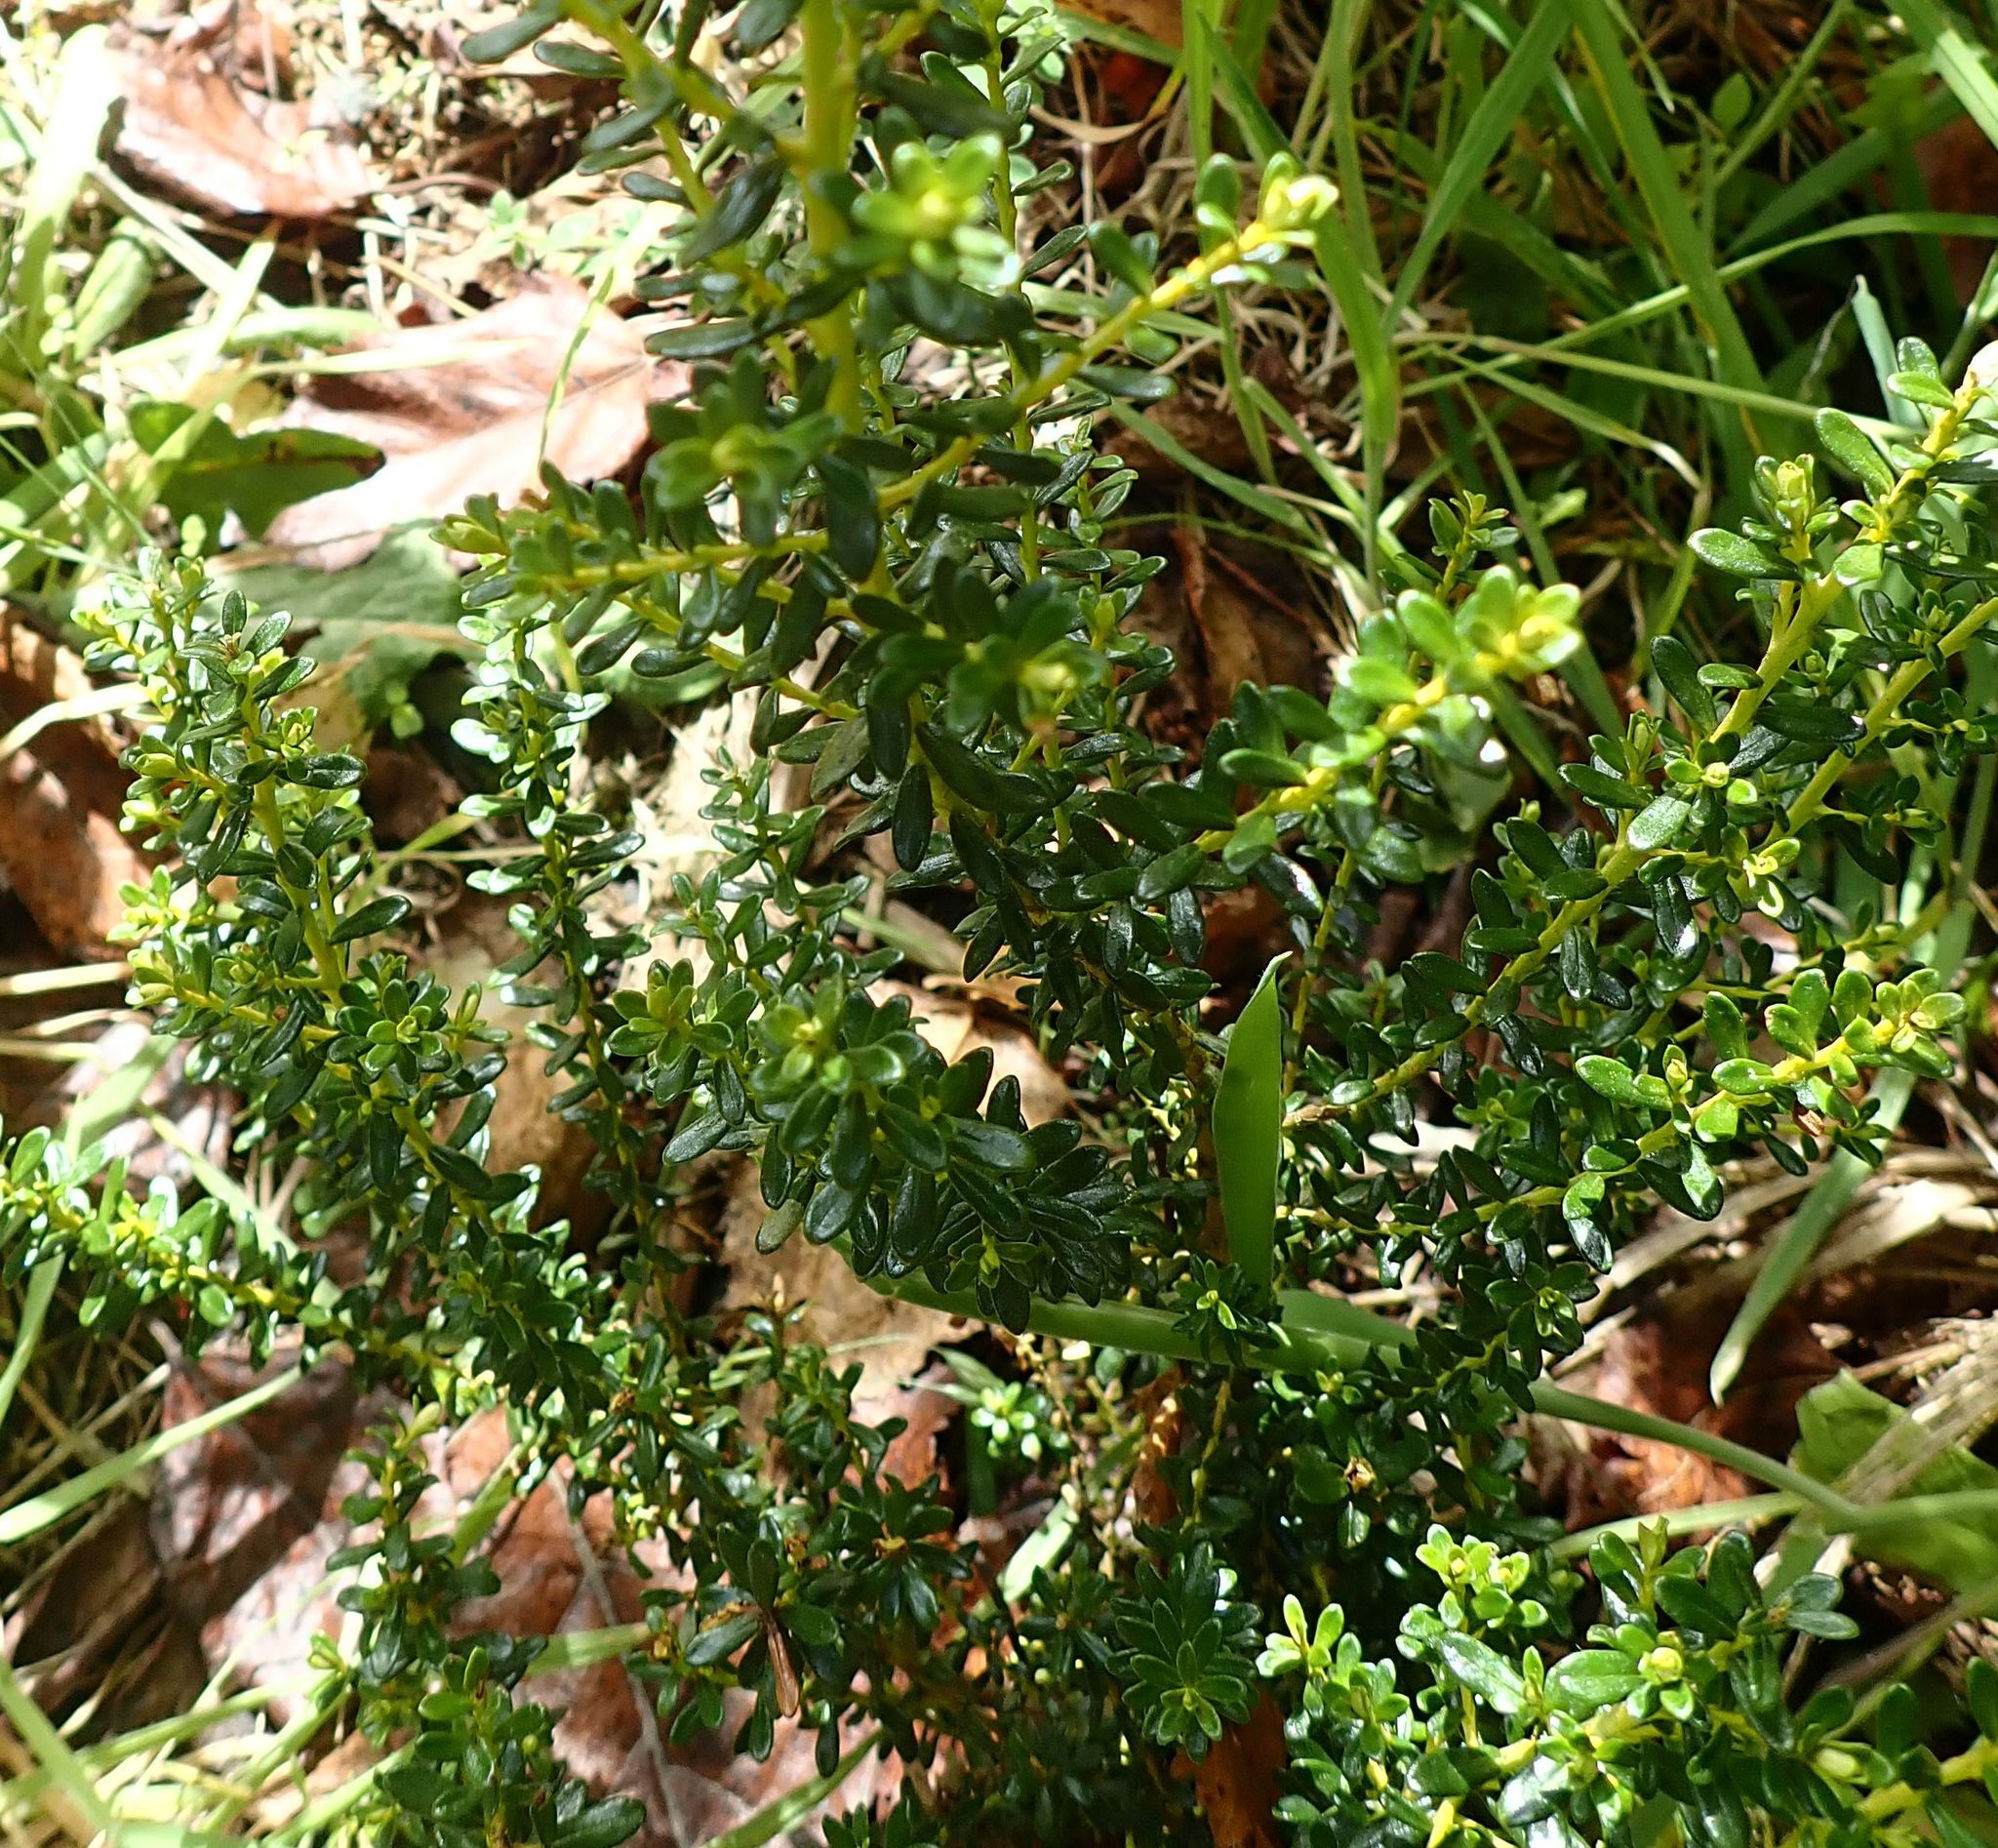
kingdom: Plantae
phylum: Tracheophyta
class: Magnoliopsida
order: Asterales
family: Asteraceae
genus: Ozothamnus
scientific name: Ozothamnus leptophyllus
